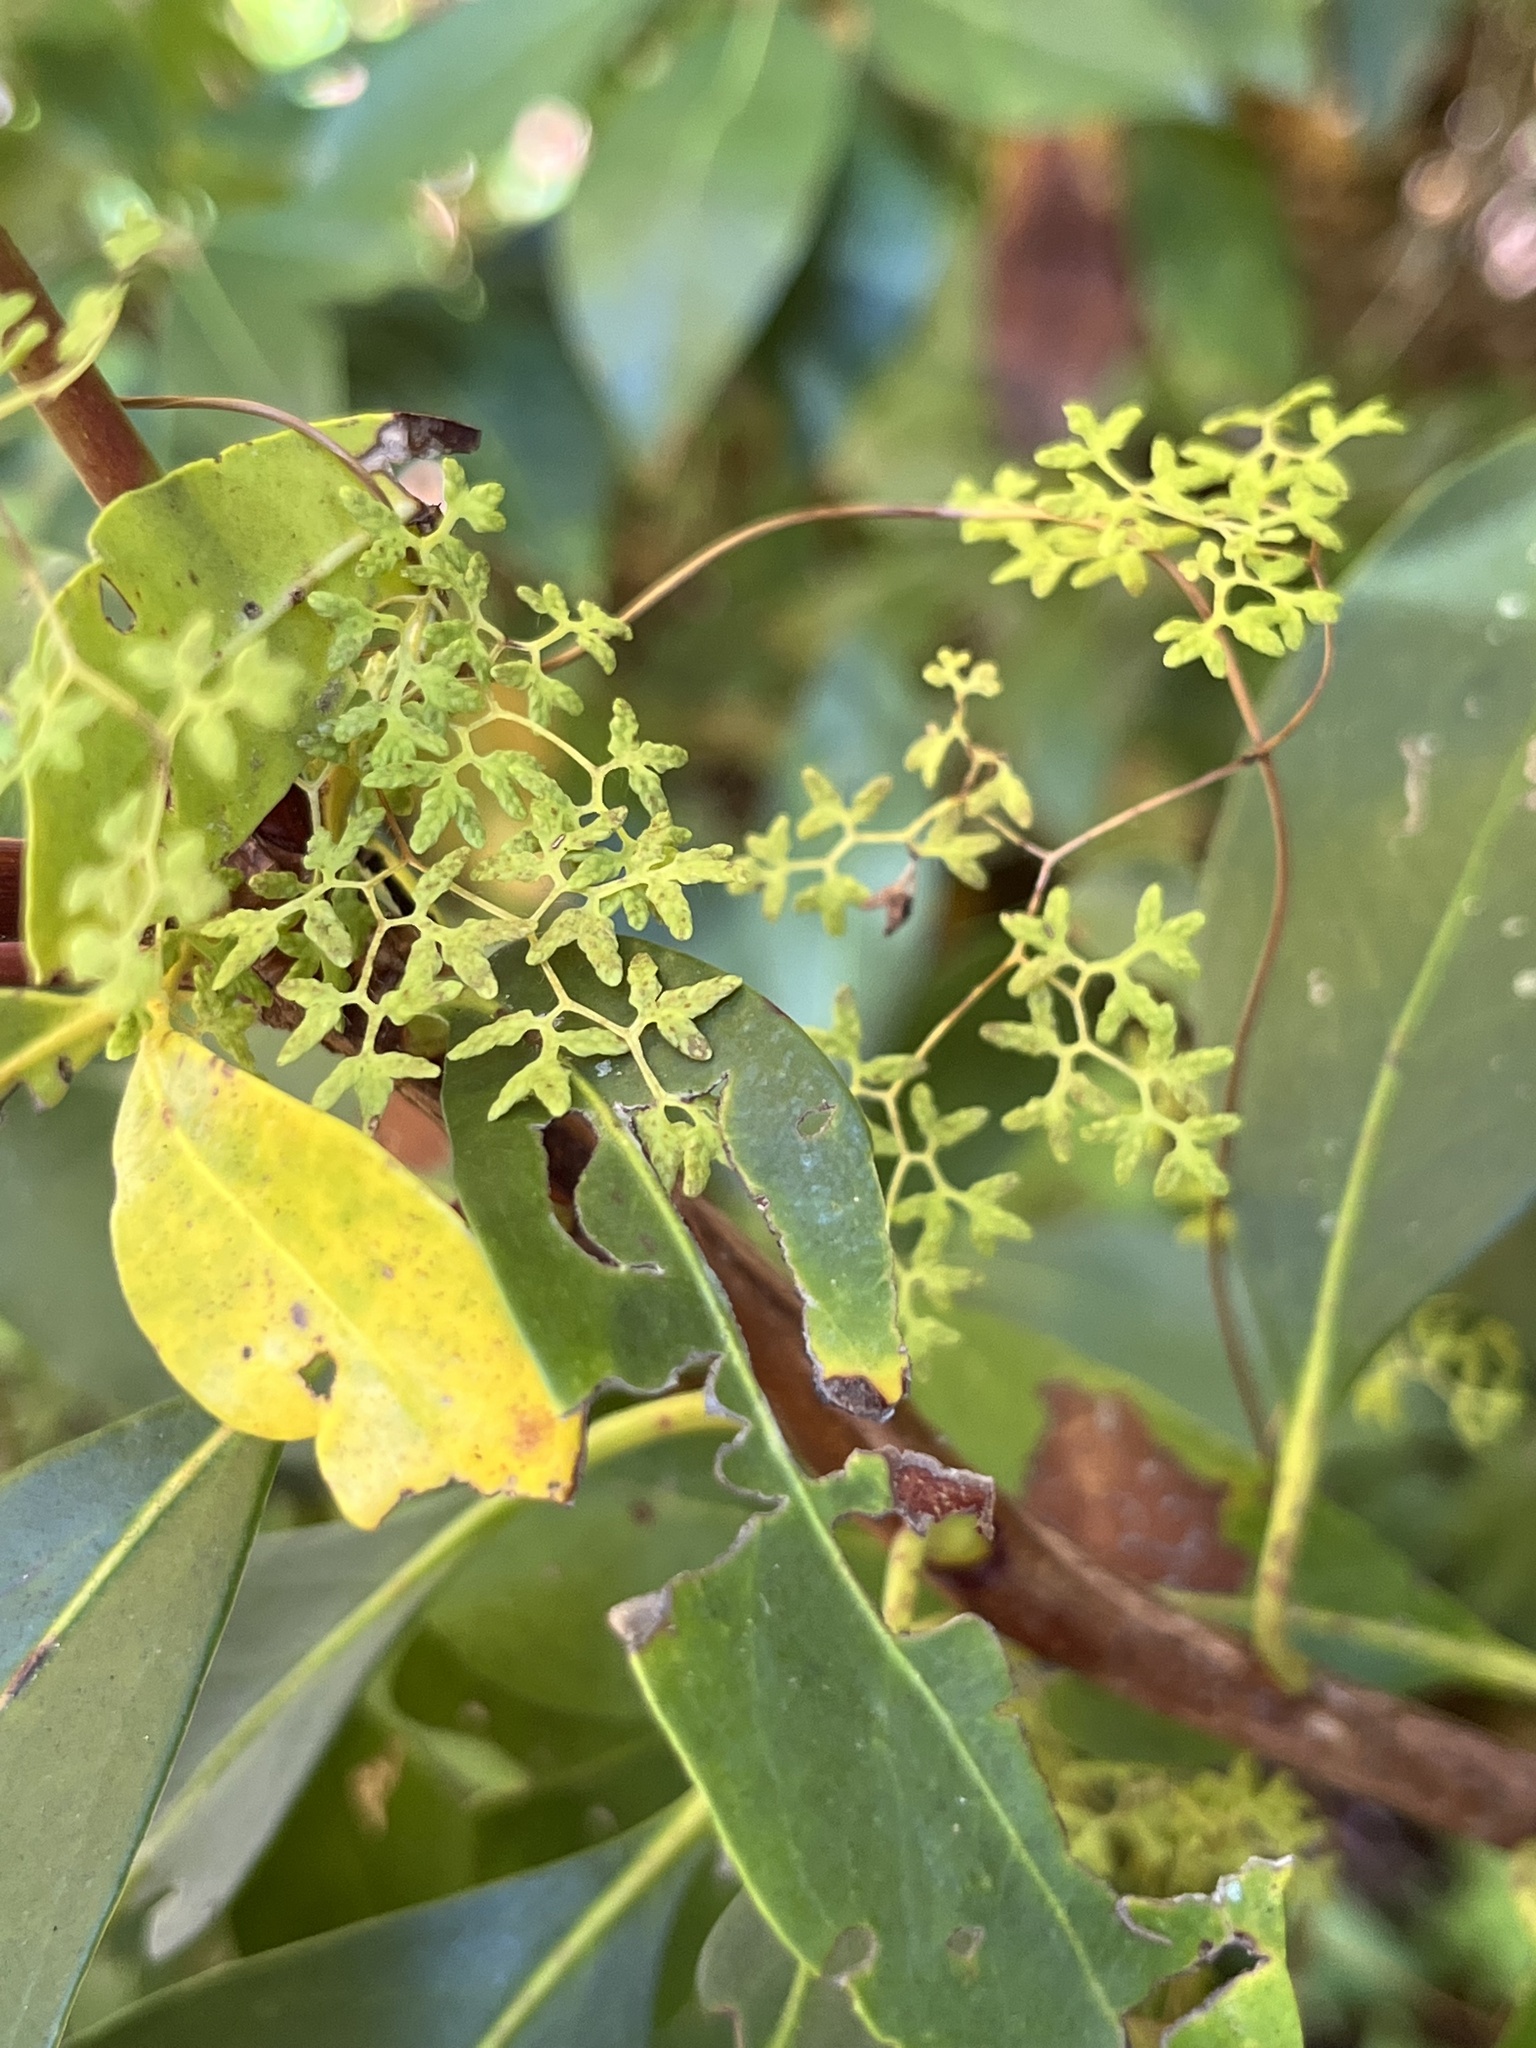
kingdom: Plantae
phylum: Tracheophyta
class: Polypodiopsida
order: Schizaeales
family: Lygodiaceae
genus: Lygodium
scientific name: Lygodium palmatum
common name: American climbing fern
